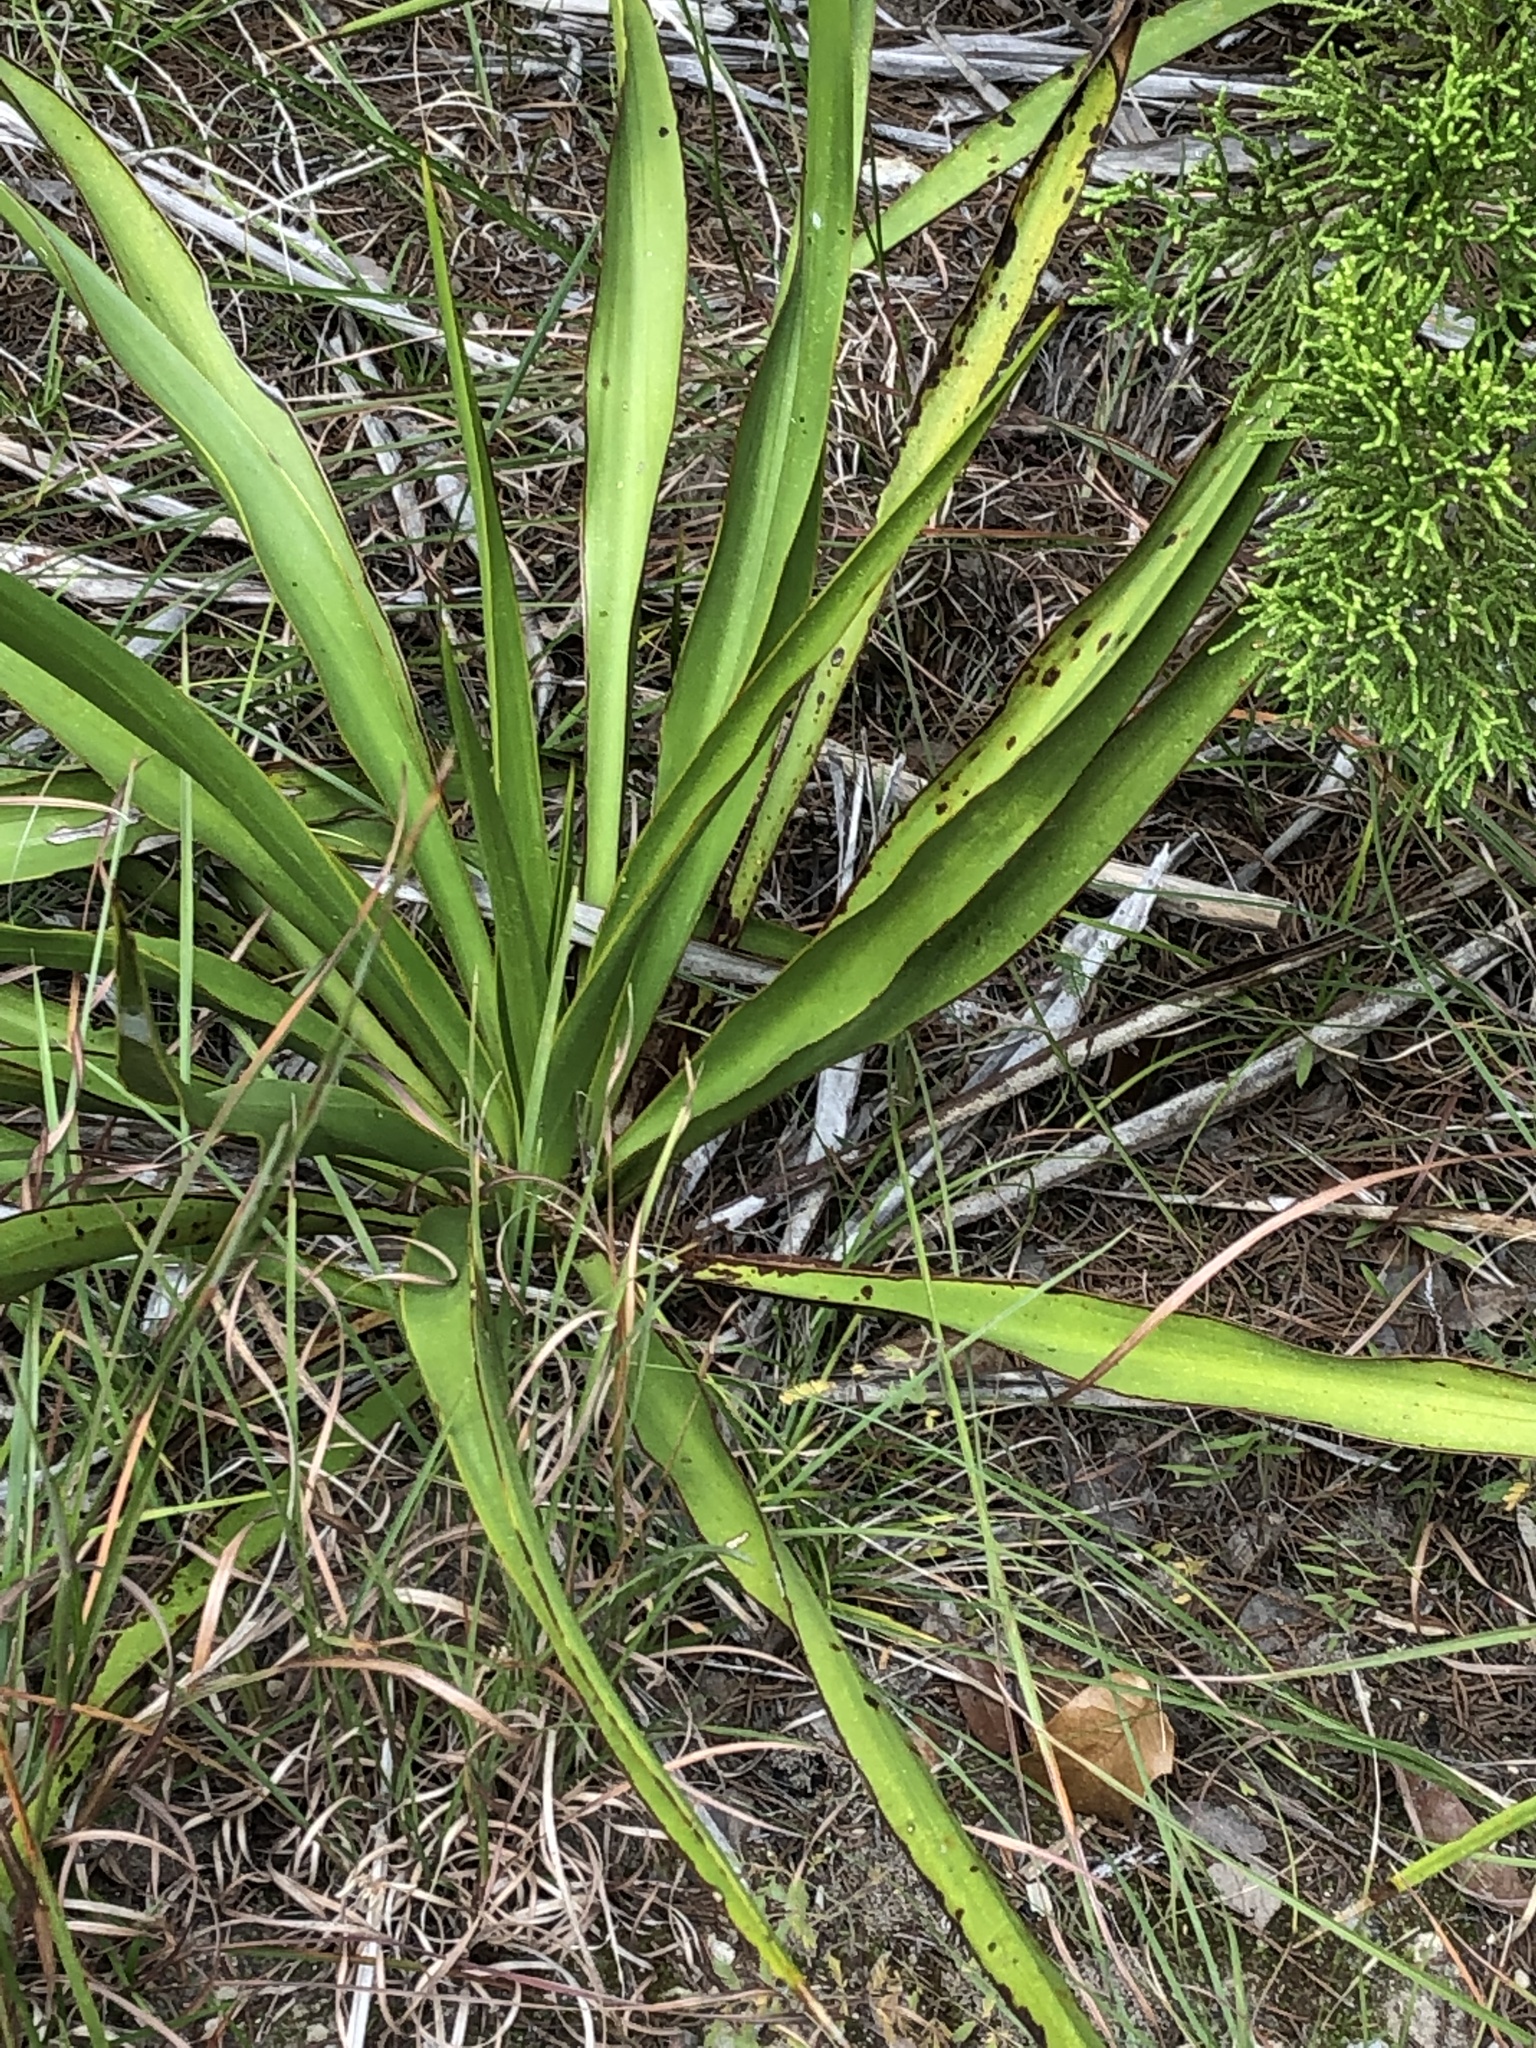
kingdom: Plantae
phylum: Tracheophyta
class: Liliopsida
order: Asparagales
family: Asparagaceae
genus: Yucca
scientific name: Yucca rupicola
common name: Twisted-leaf spanish-dagger
